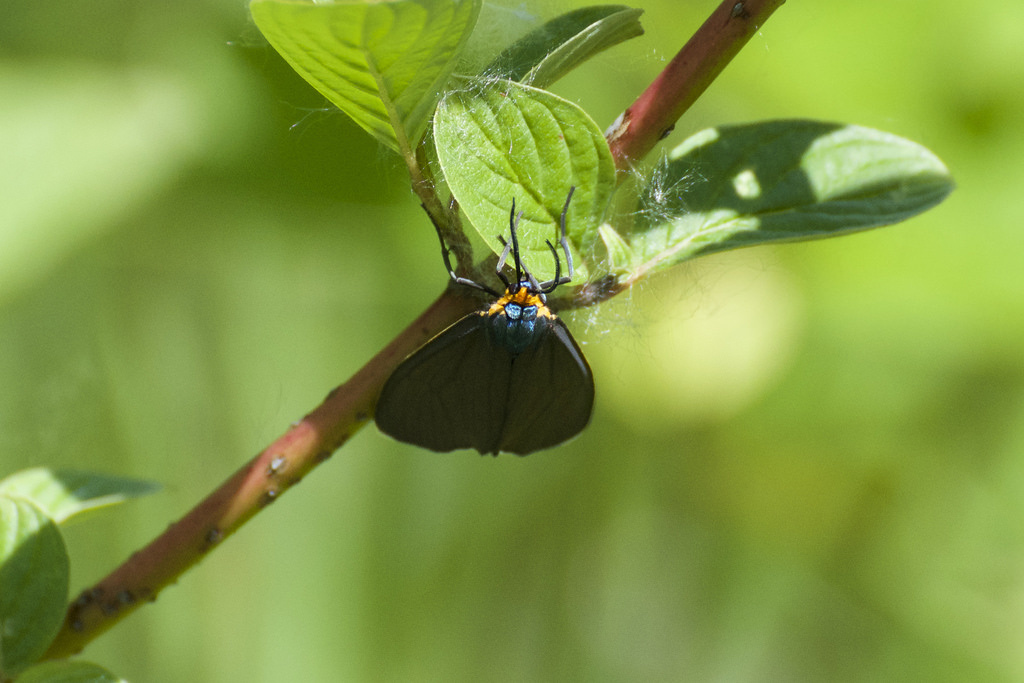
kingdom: Animalia
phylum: Arthropoda
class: Insecta
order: Lepidoptera
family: Erebidae
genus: Ctenucha
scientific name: Ctenucha virginica
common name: Virginia ctenucha moth
